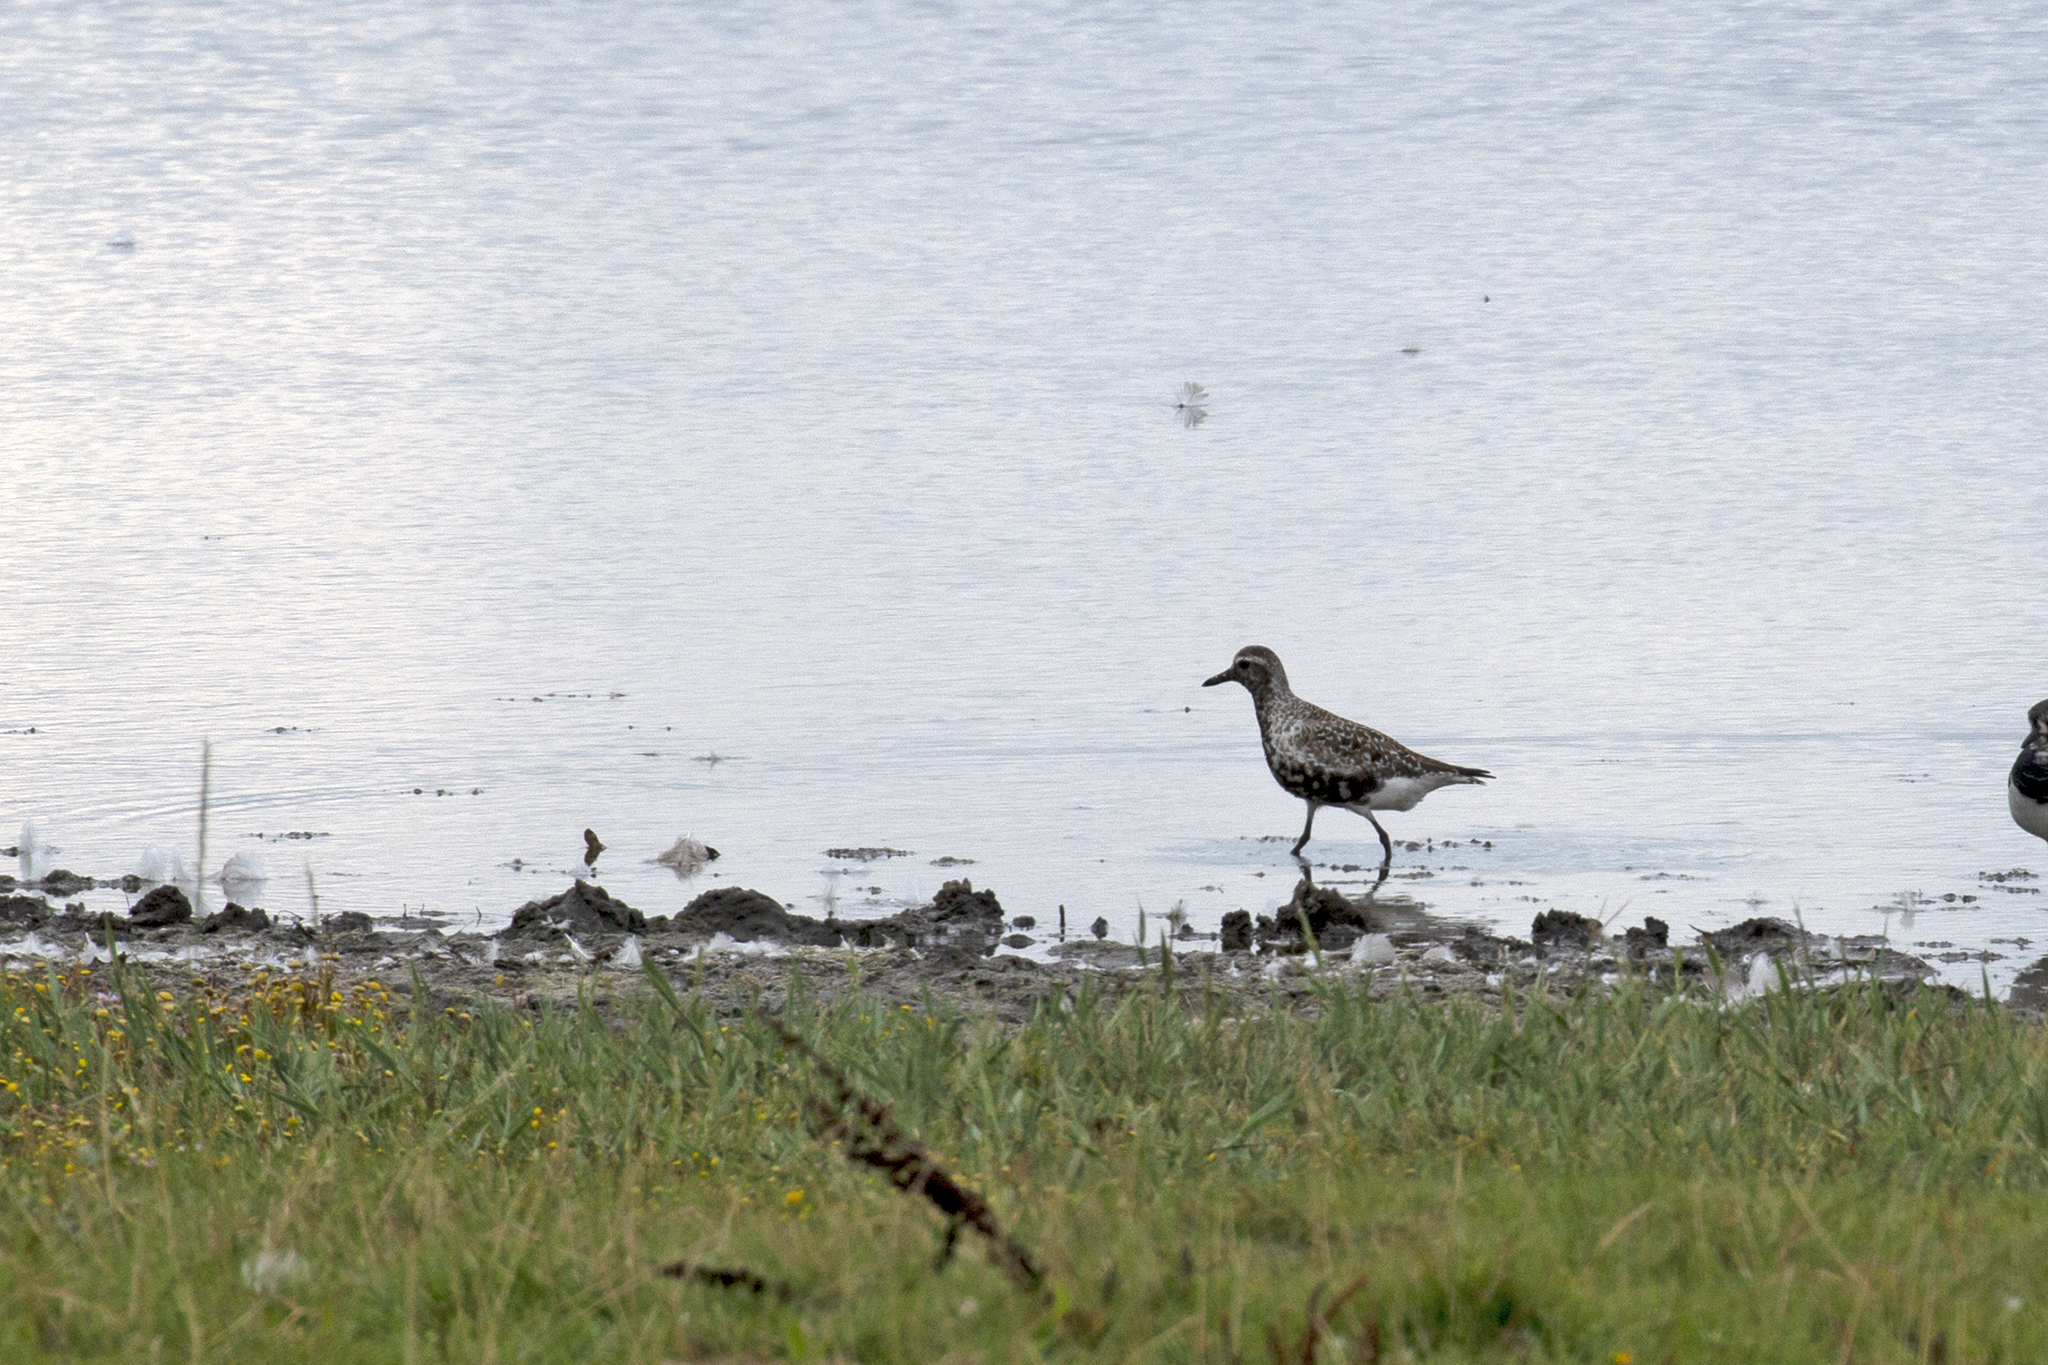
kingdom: Animalia
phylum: Chordata
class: Aves
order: Charadriiformes
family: Charadriidae
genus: Pluvialis
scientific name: Pluvialis squatarola
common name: Grey plover
